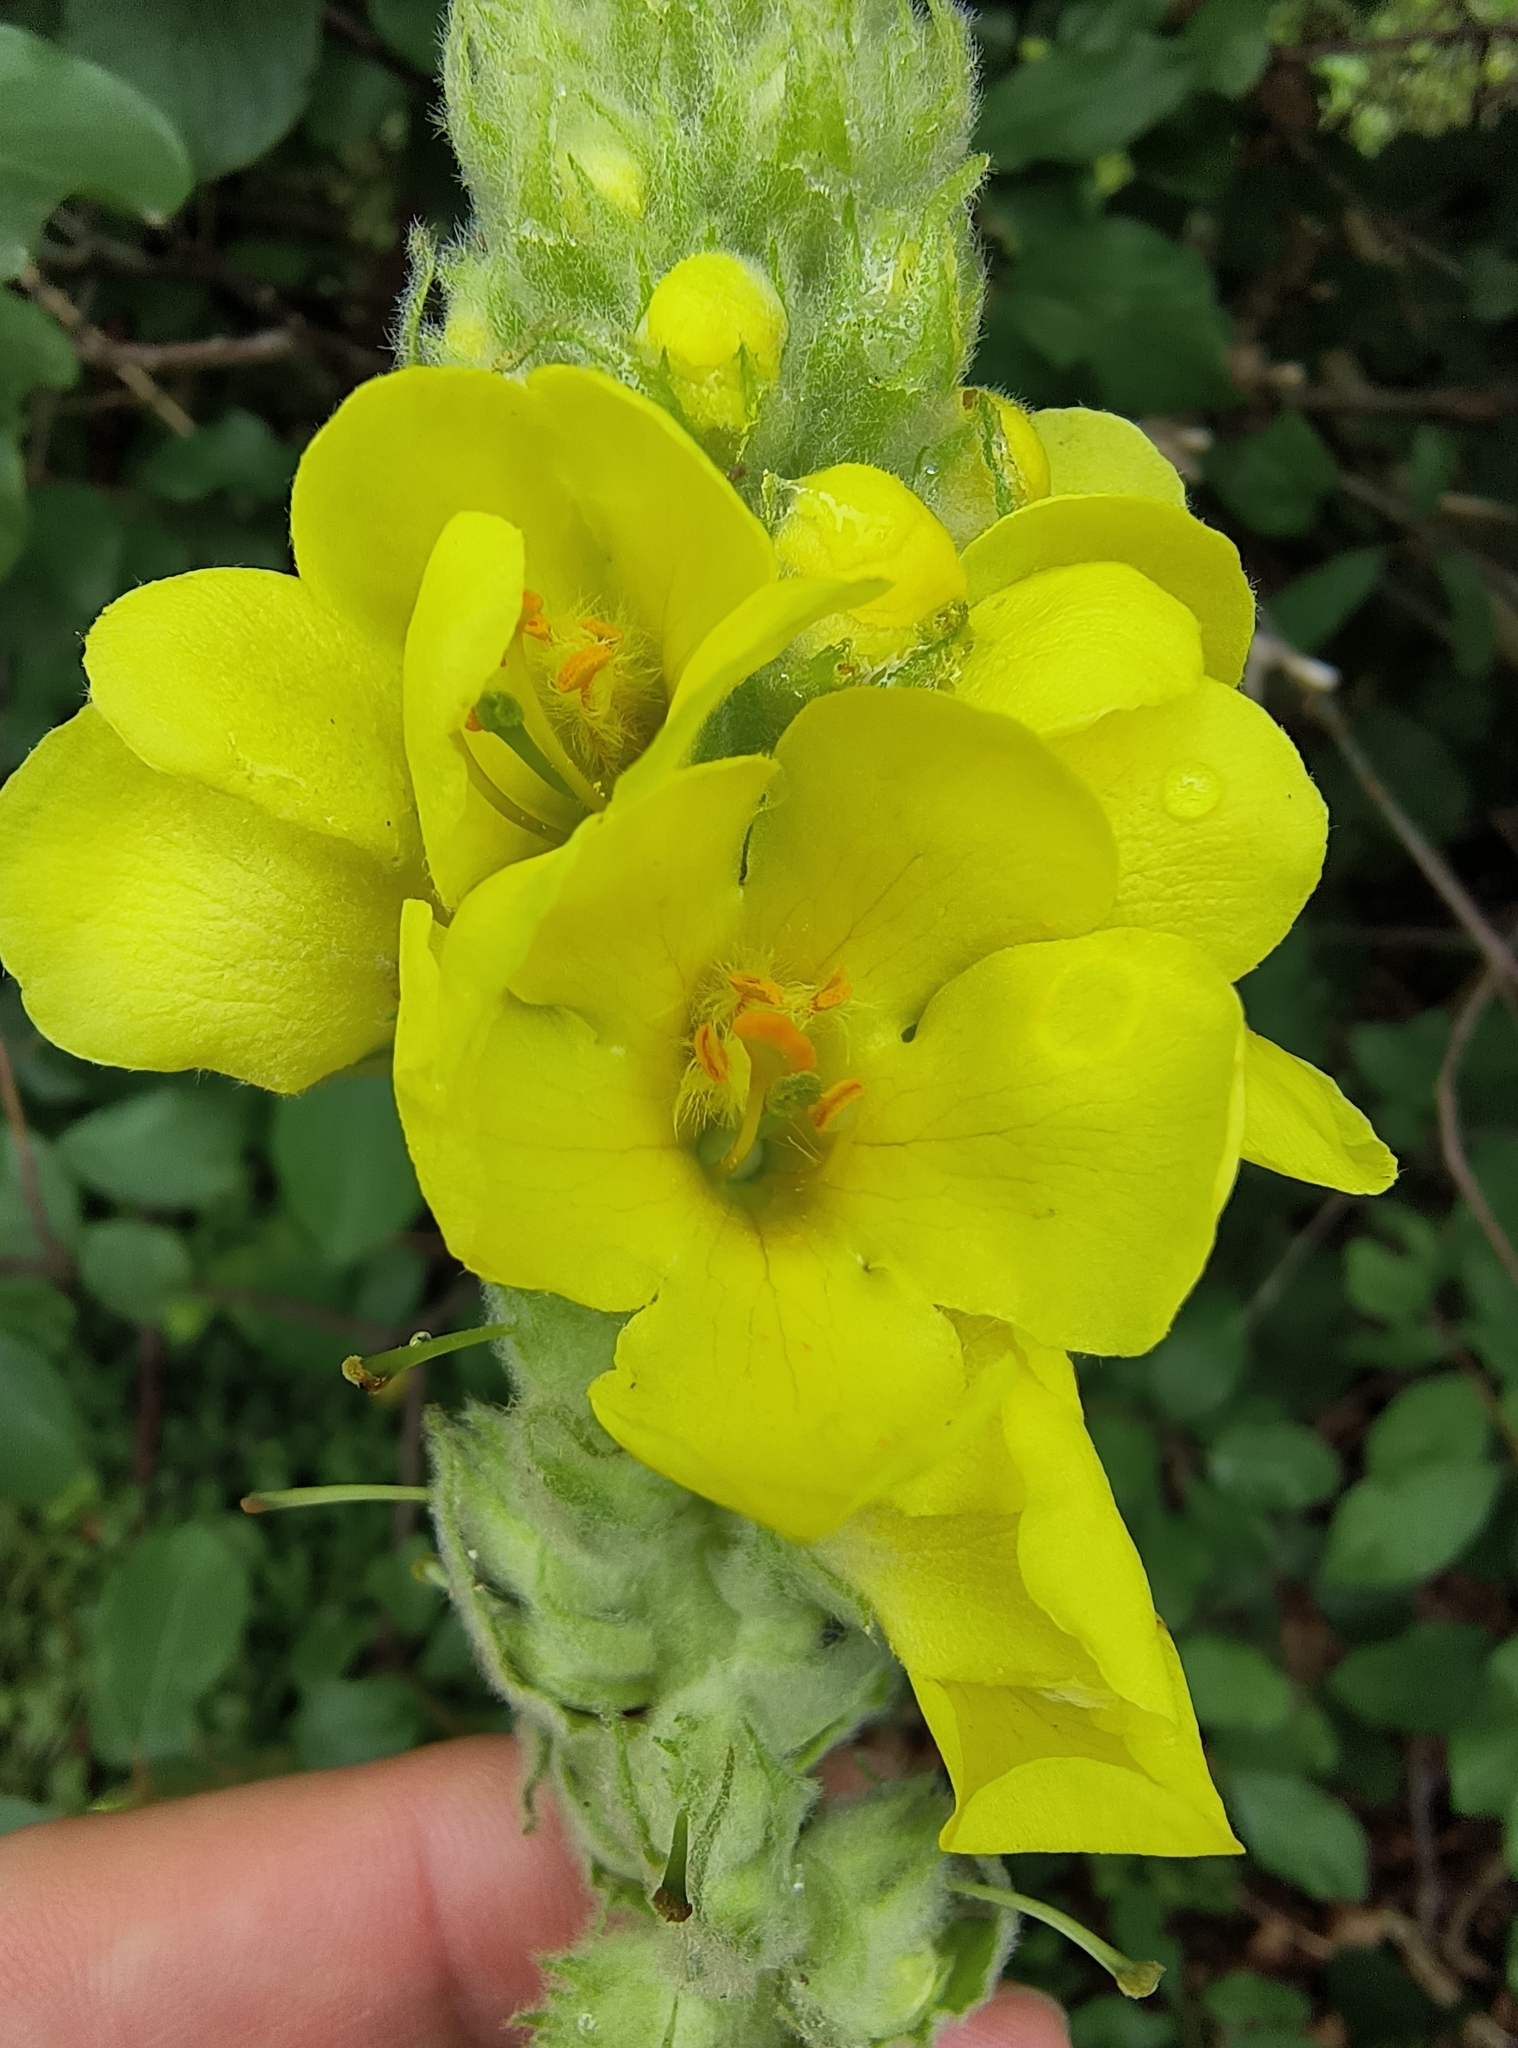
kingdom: Plantae
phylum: Tracheophyta
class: Magnoliopsida
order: Lamiales
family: Scrophulariaceae
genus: Verbascum
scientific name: Verbascum thapsus
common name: Common mullein
